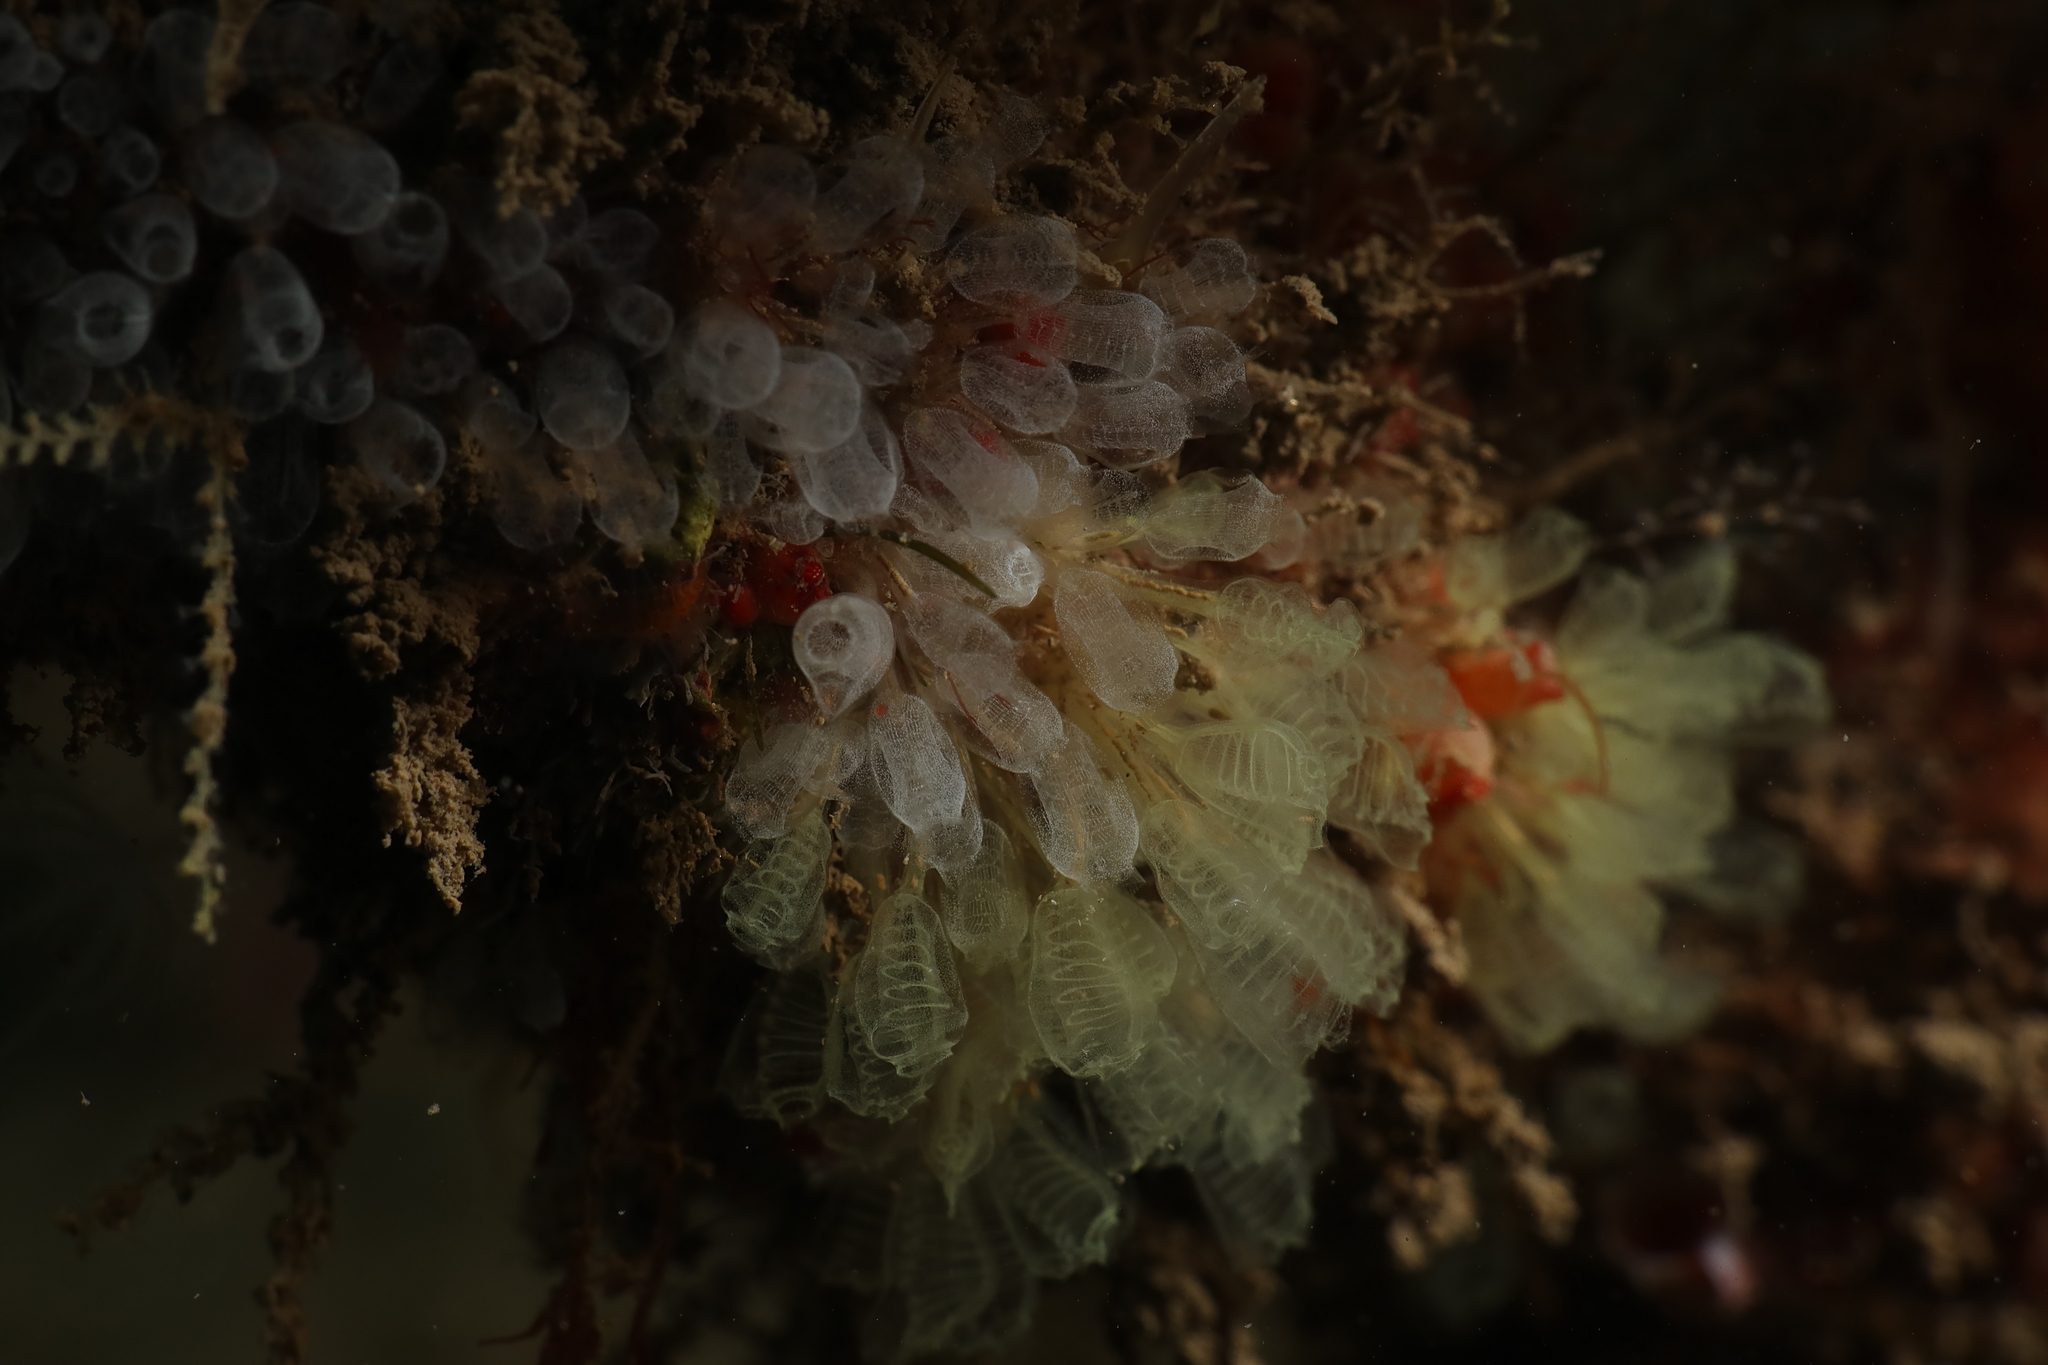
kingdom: Animalia
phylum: Chordata
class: Ascidiacea
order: Aplousobranchia
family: Clavelinidae
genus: Pycnoclavella
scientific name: Pycnoclavella communis
